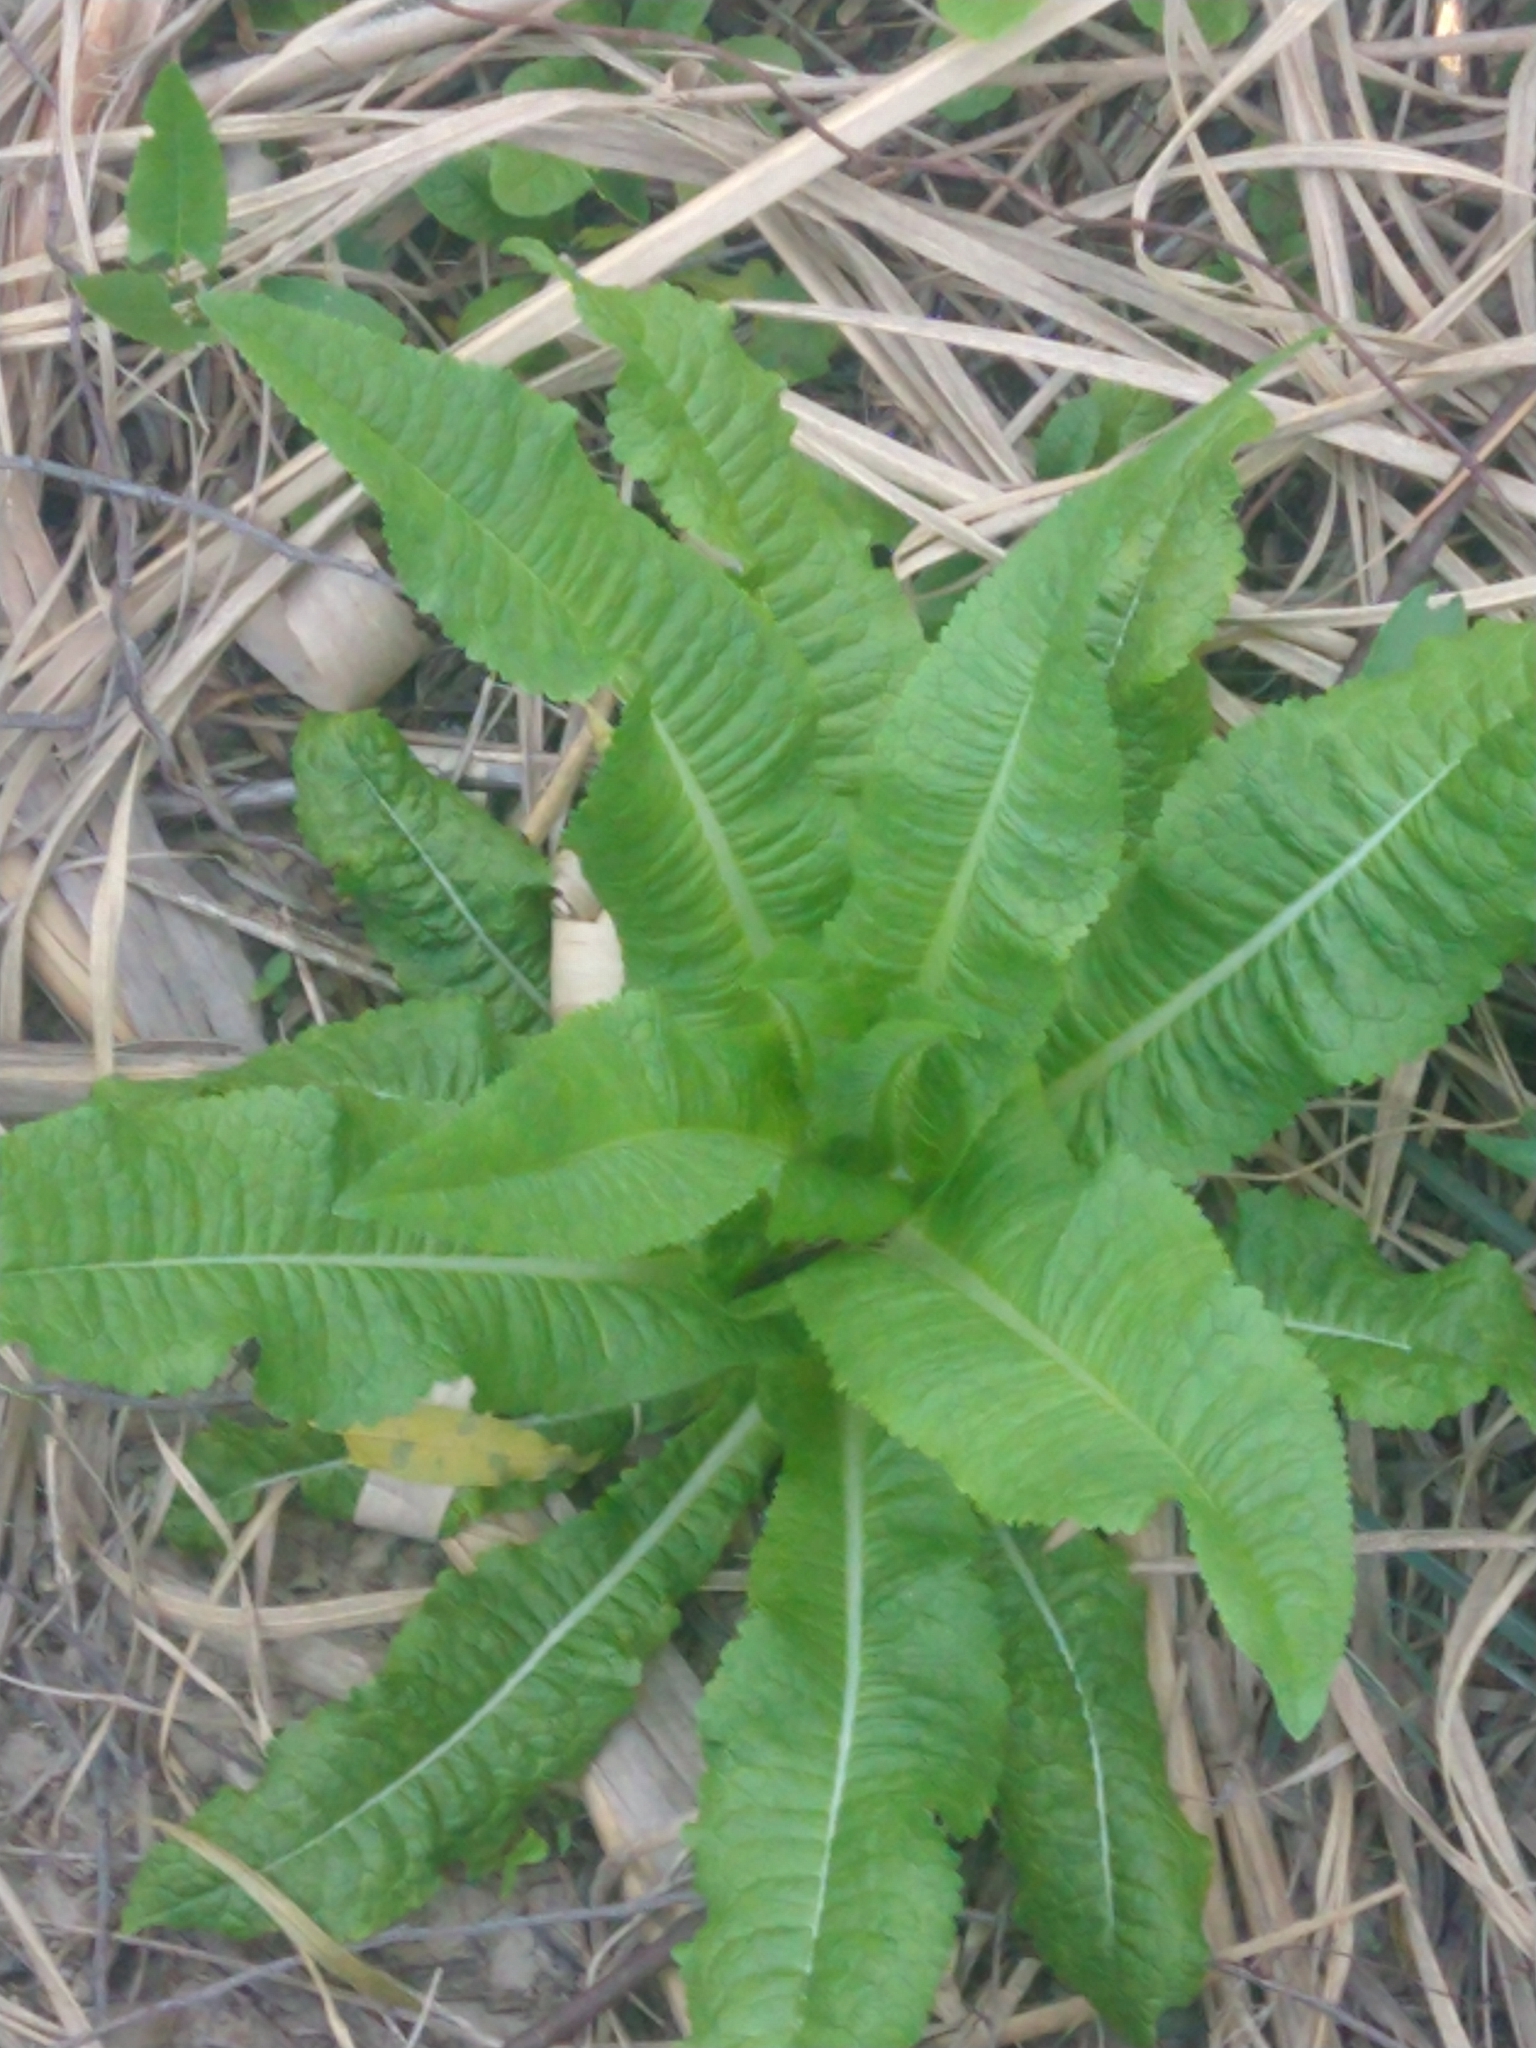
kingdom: Plantae
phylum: Tracheophyta
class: Magnoliopsida
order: Dipsacales
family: Caprifoliaceae
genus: Dipsacus
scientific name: Dipsacus fullonum
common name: Teasel
